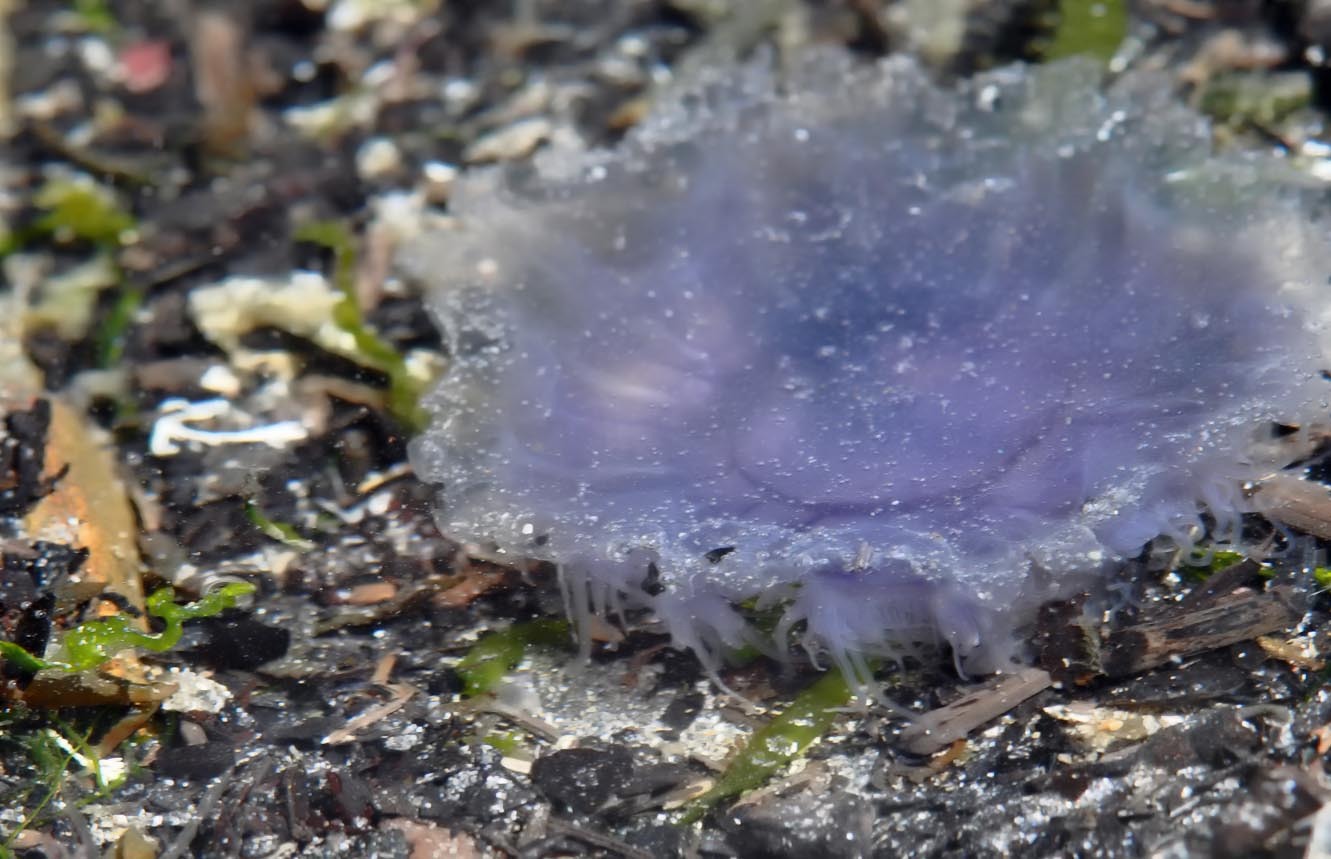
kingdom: Animalia
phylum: Cnidaria
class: Scyphozoa
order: Semaeostomeae
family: Cyaneidae
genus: Cyanea
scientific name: Cyanea lamarckii
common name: Blue jellyfish
